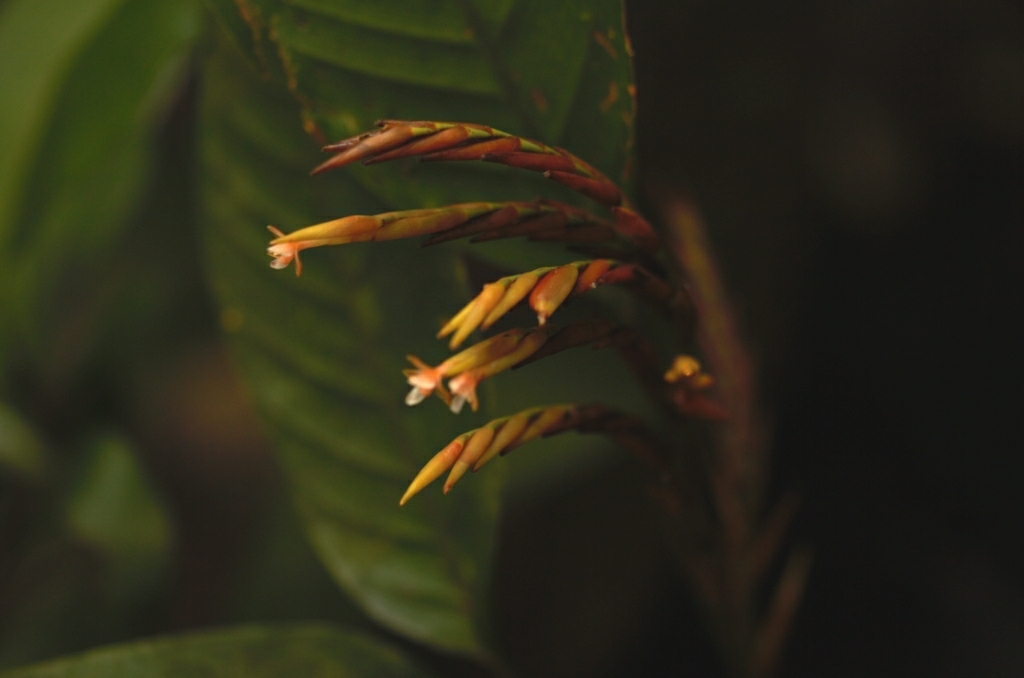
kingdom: Plantae
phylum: Tracheophyta
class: Liliopsida
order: Zingiberales
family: Marantaceae
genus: Monotagma
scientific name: Monotagma contractum
